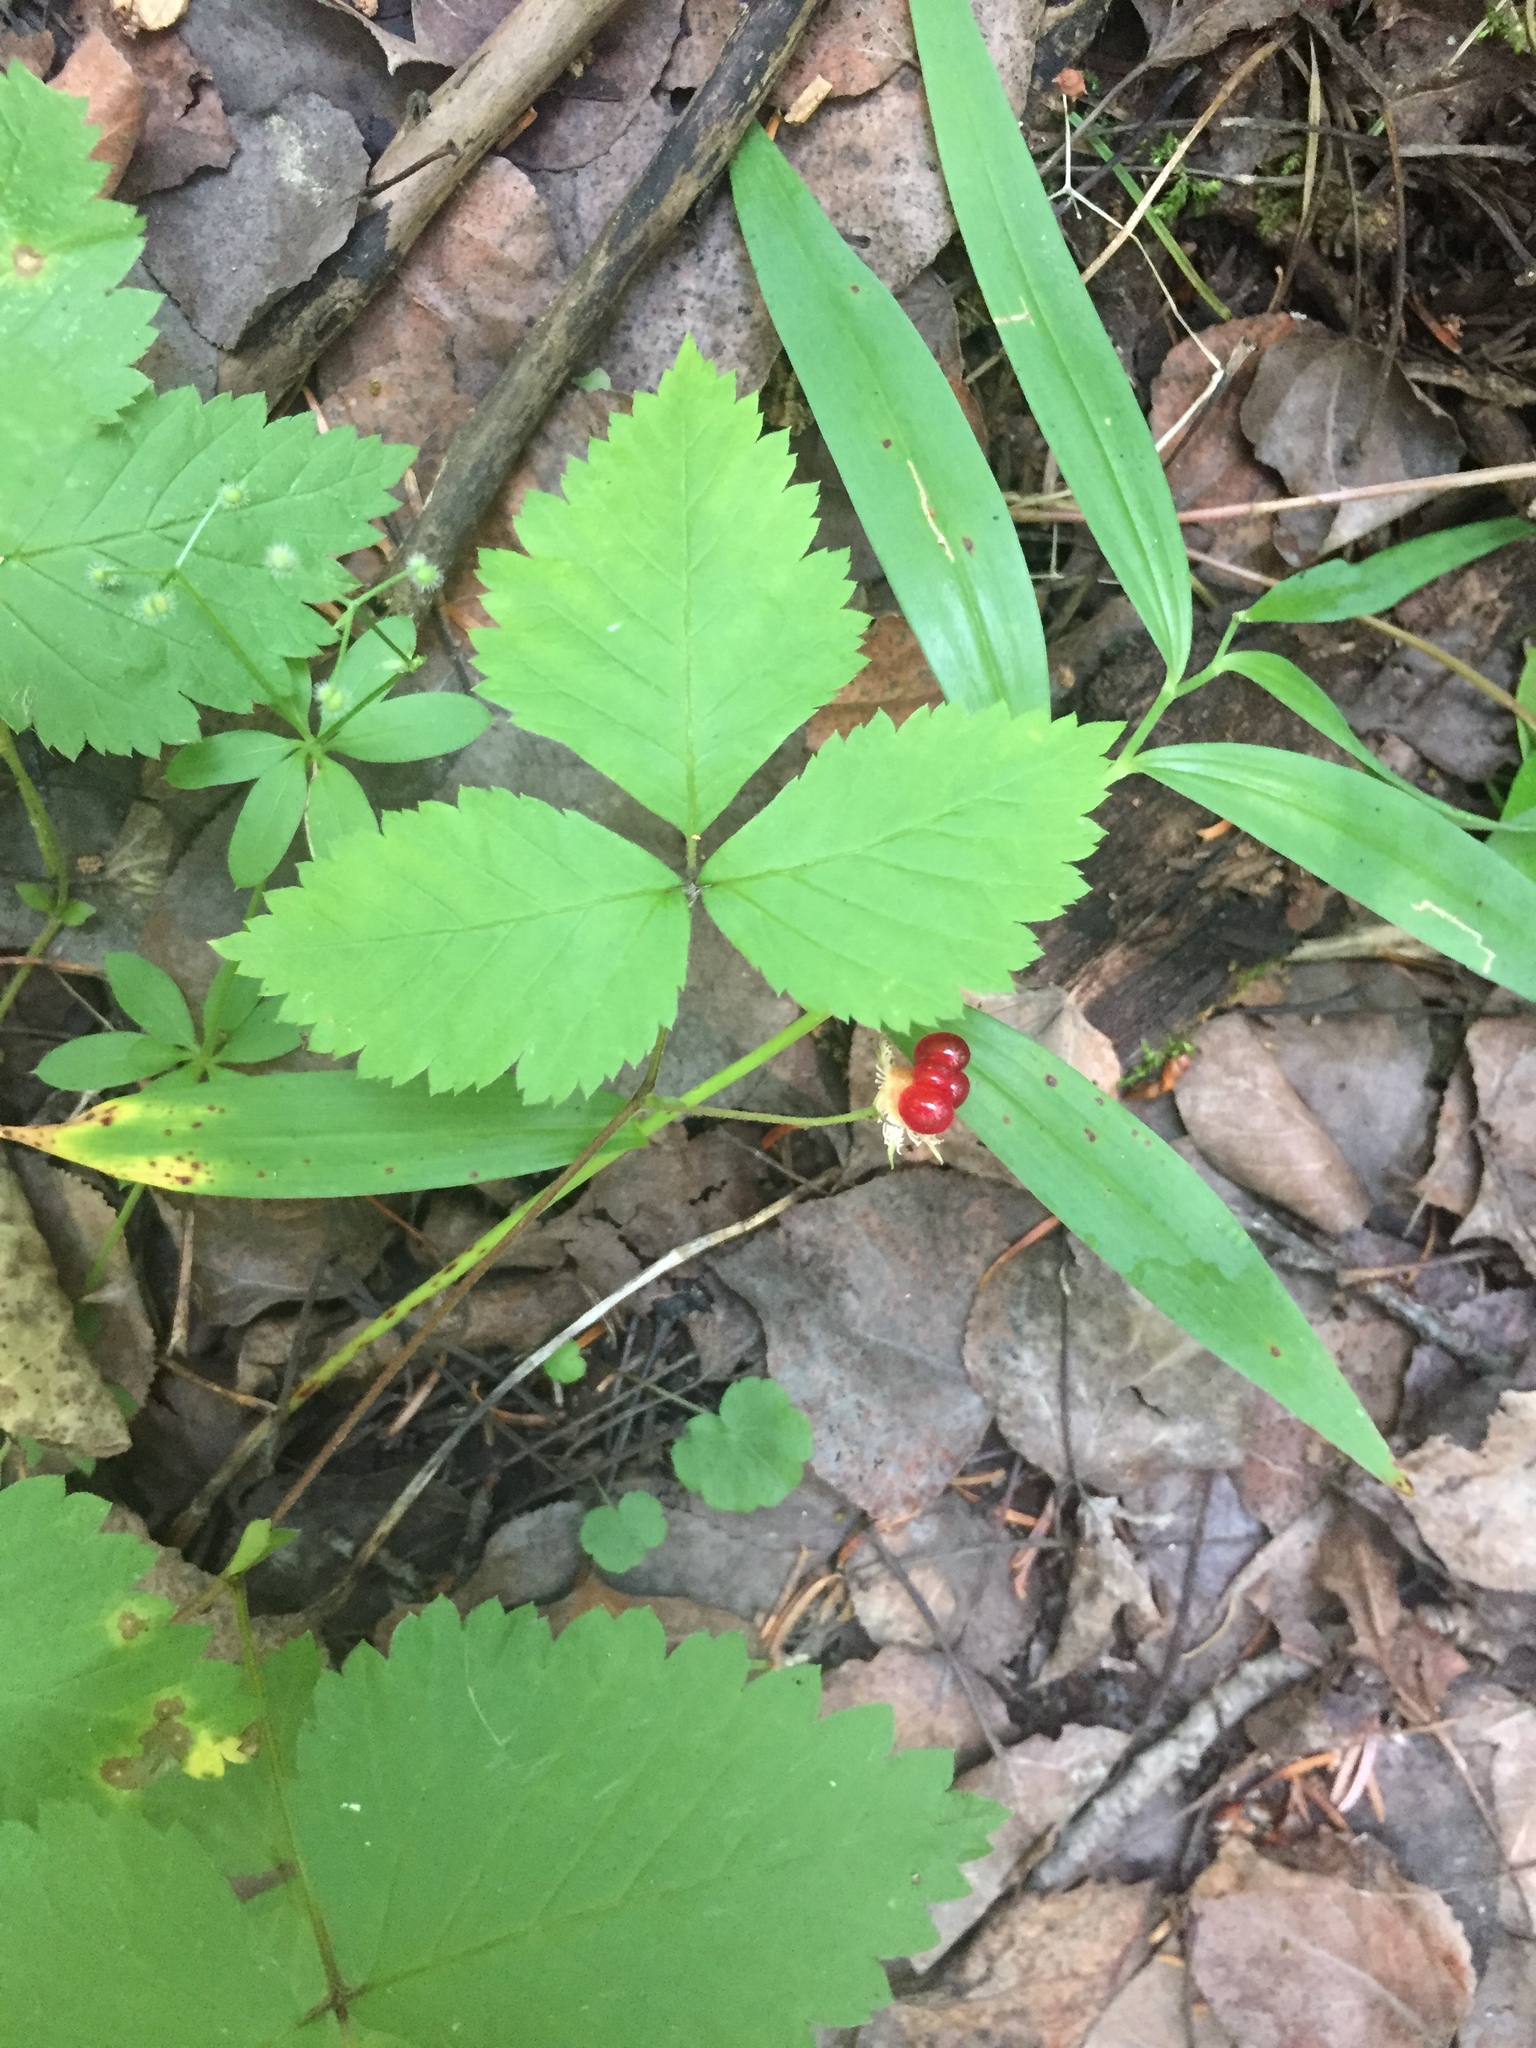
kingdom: Plantae
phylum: Tracheophyta
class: Magnoliopsida
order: Rosales
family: Rosaceae
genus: Rubus
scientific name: Rubus pubescens
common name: Dwarf raspberry
